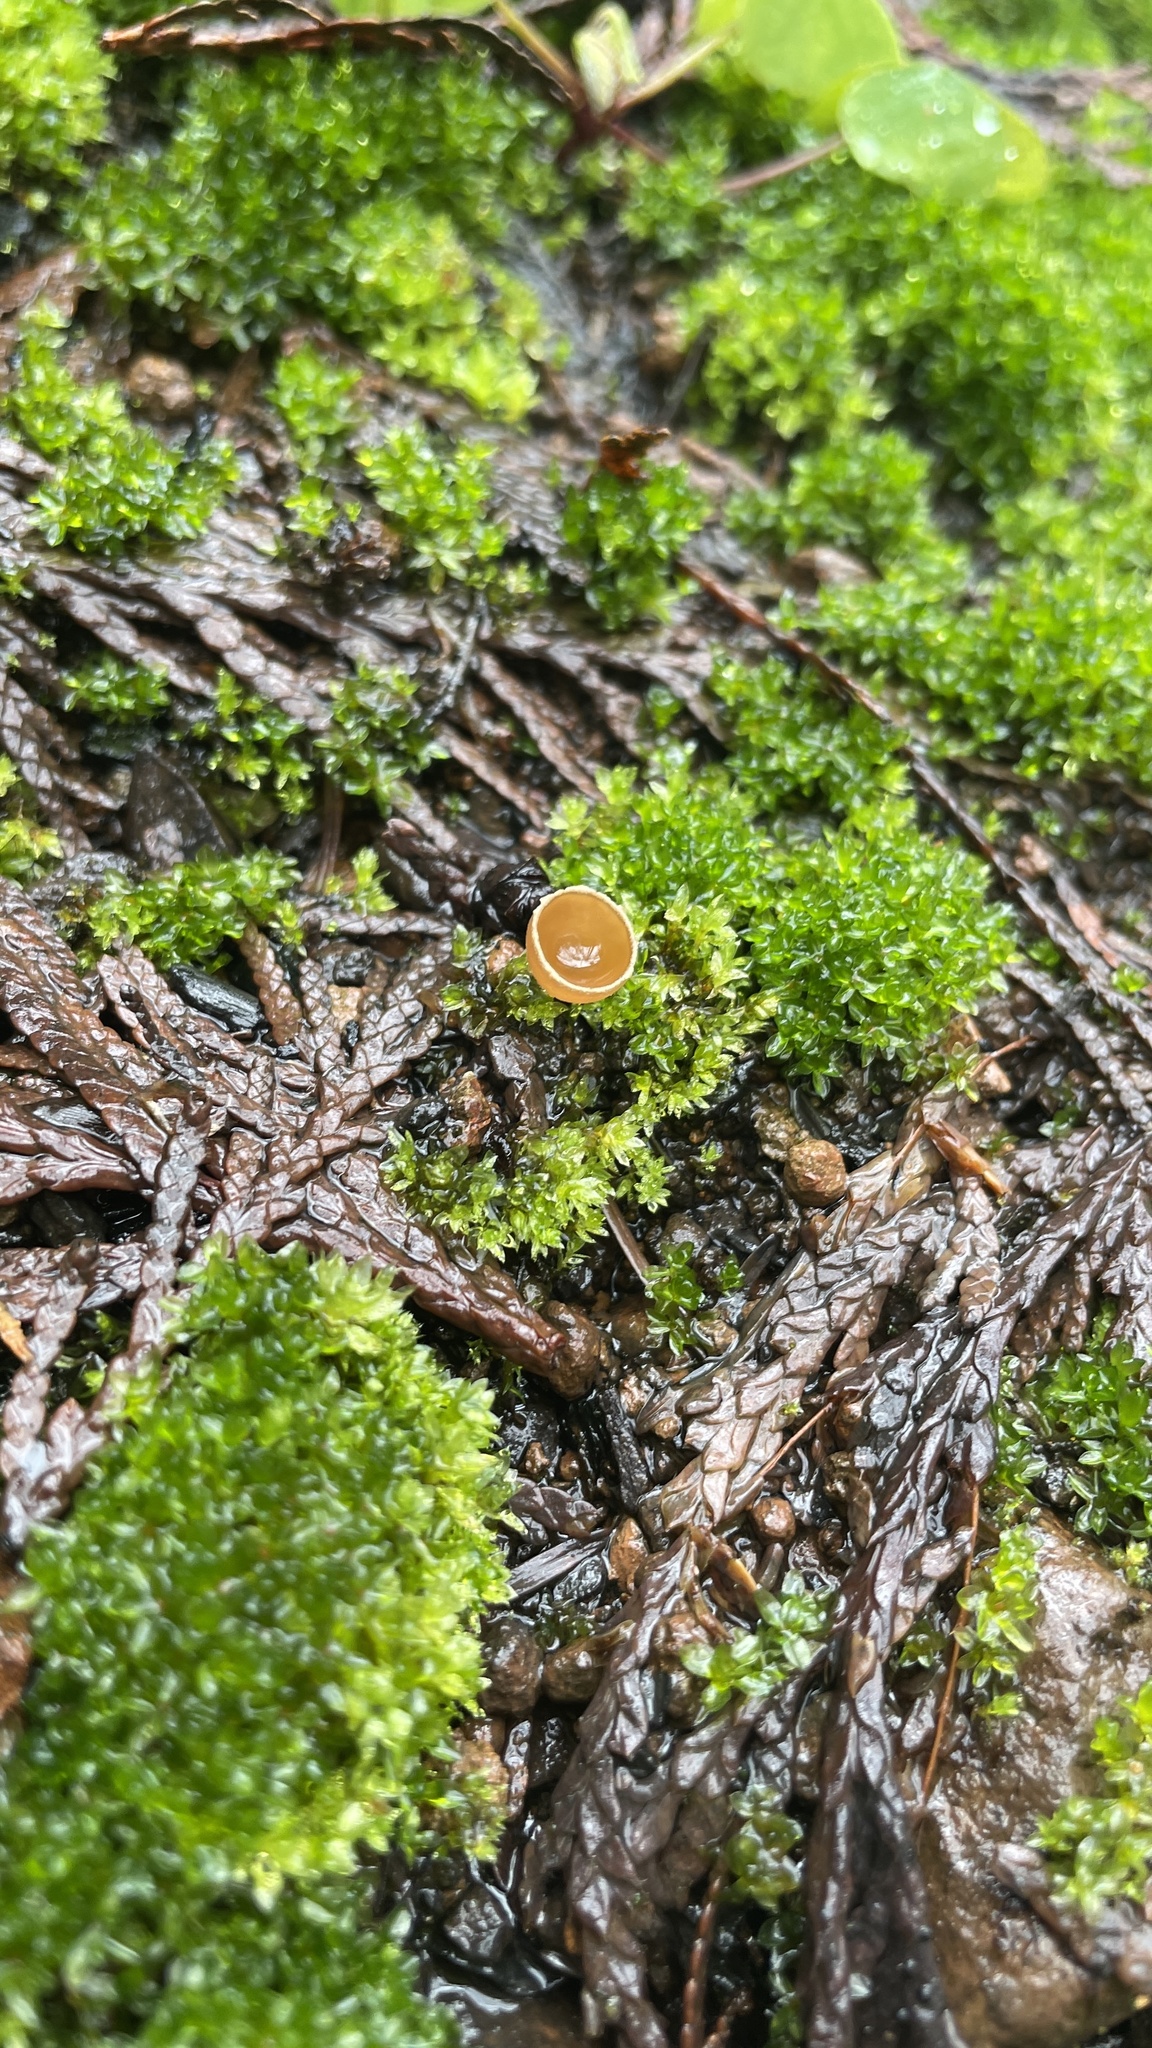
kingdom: Fungi
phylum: Ascomycota
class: Pezizomycetes
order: Pezizales
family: Pyronemataceae
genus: Geopyxis
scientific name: Geopyxis carbonaria
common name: Stalked bonfire cup
